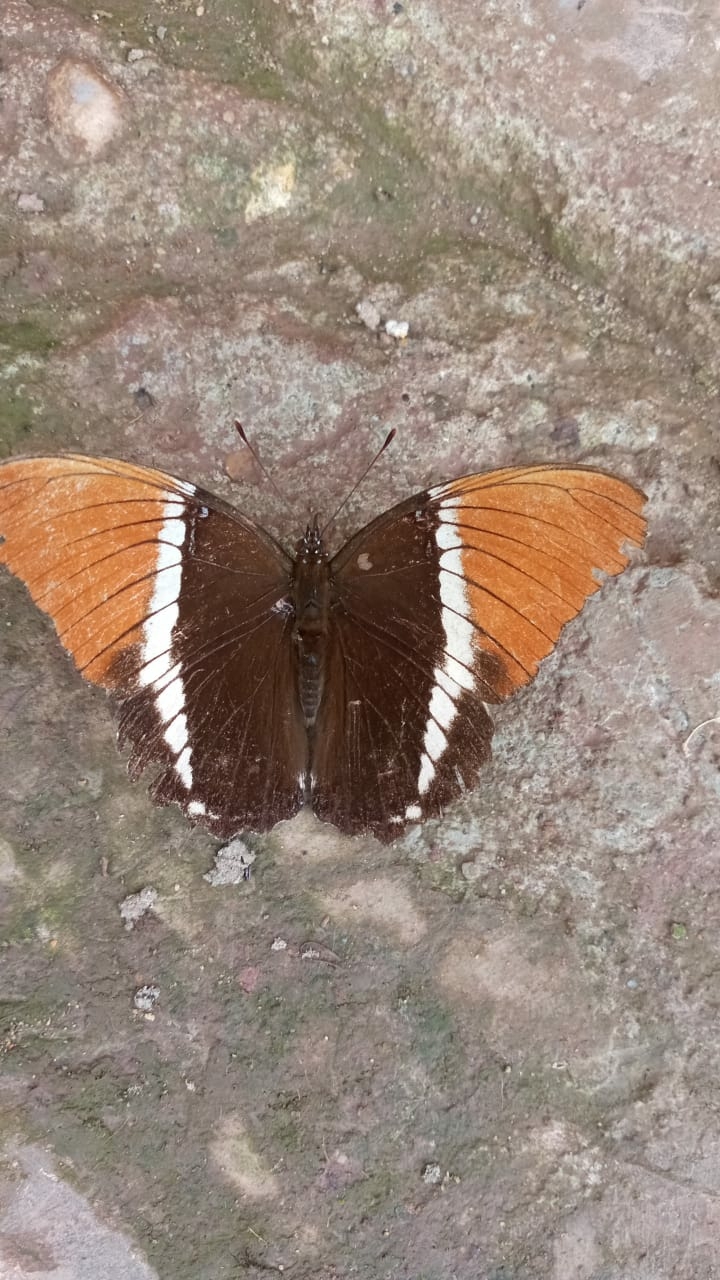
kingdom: Animalia
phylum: Arthropoda
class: Insecta
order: Lepidoptera
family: Nymphalidae
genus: Siproeta
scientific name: Siproeta epaphus
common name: Rusty-tipped page
